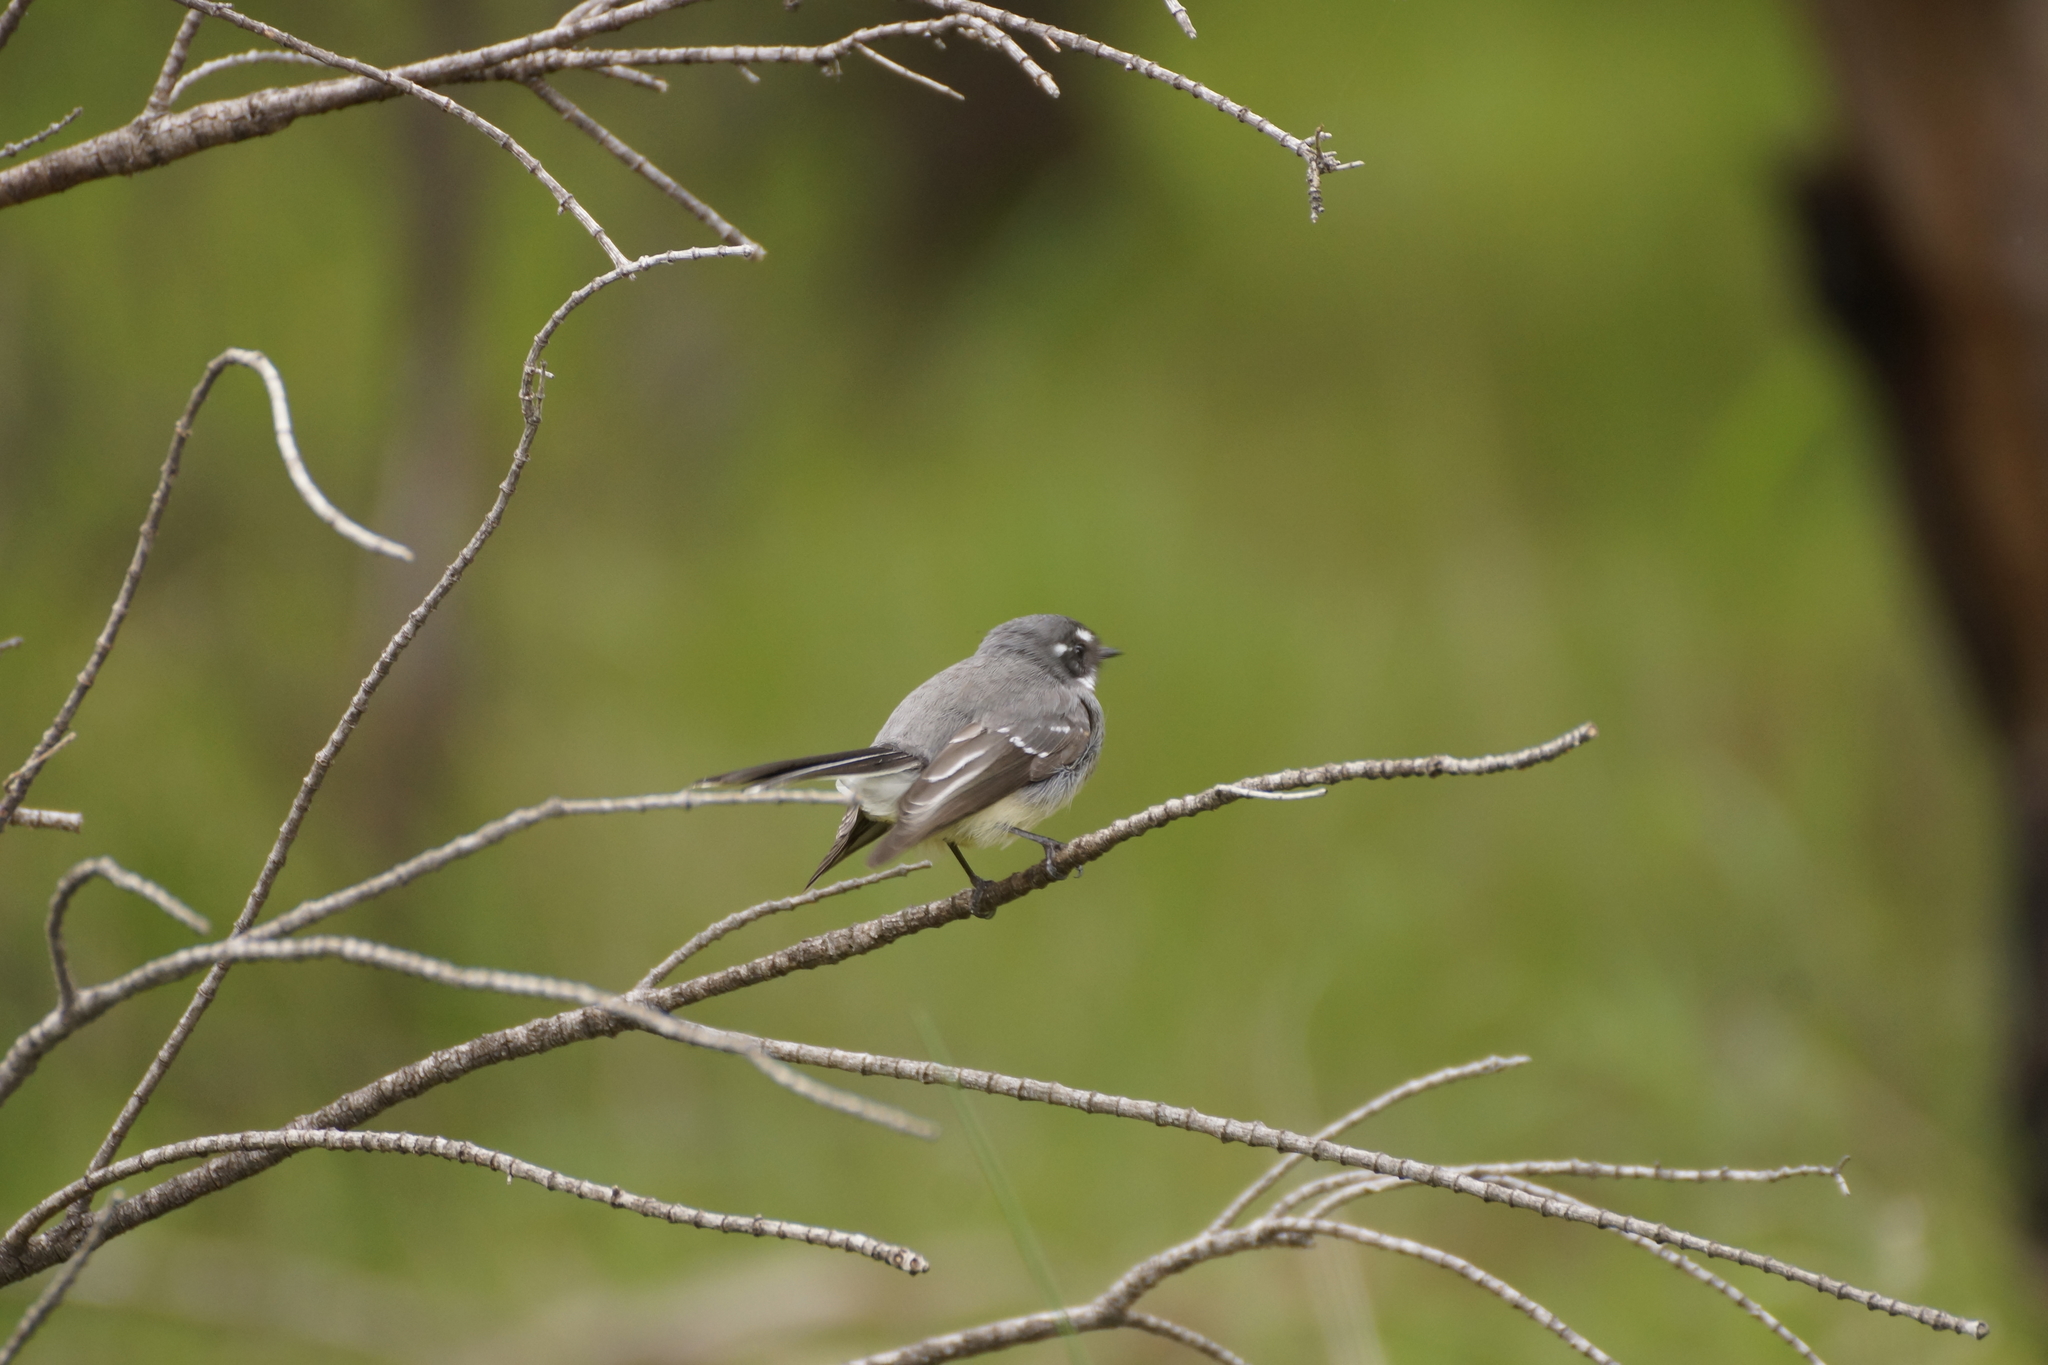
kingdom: Animalia
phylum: Chordata
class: Aves
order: Passeriformes
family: Rhipiduridae
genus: Rhipidura
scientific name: Rhipidura albiscapa
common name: Grey fantail
